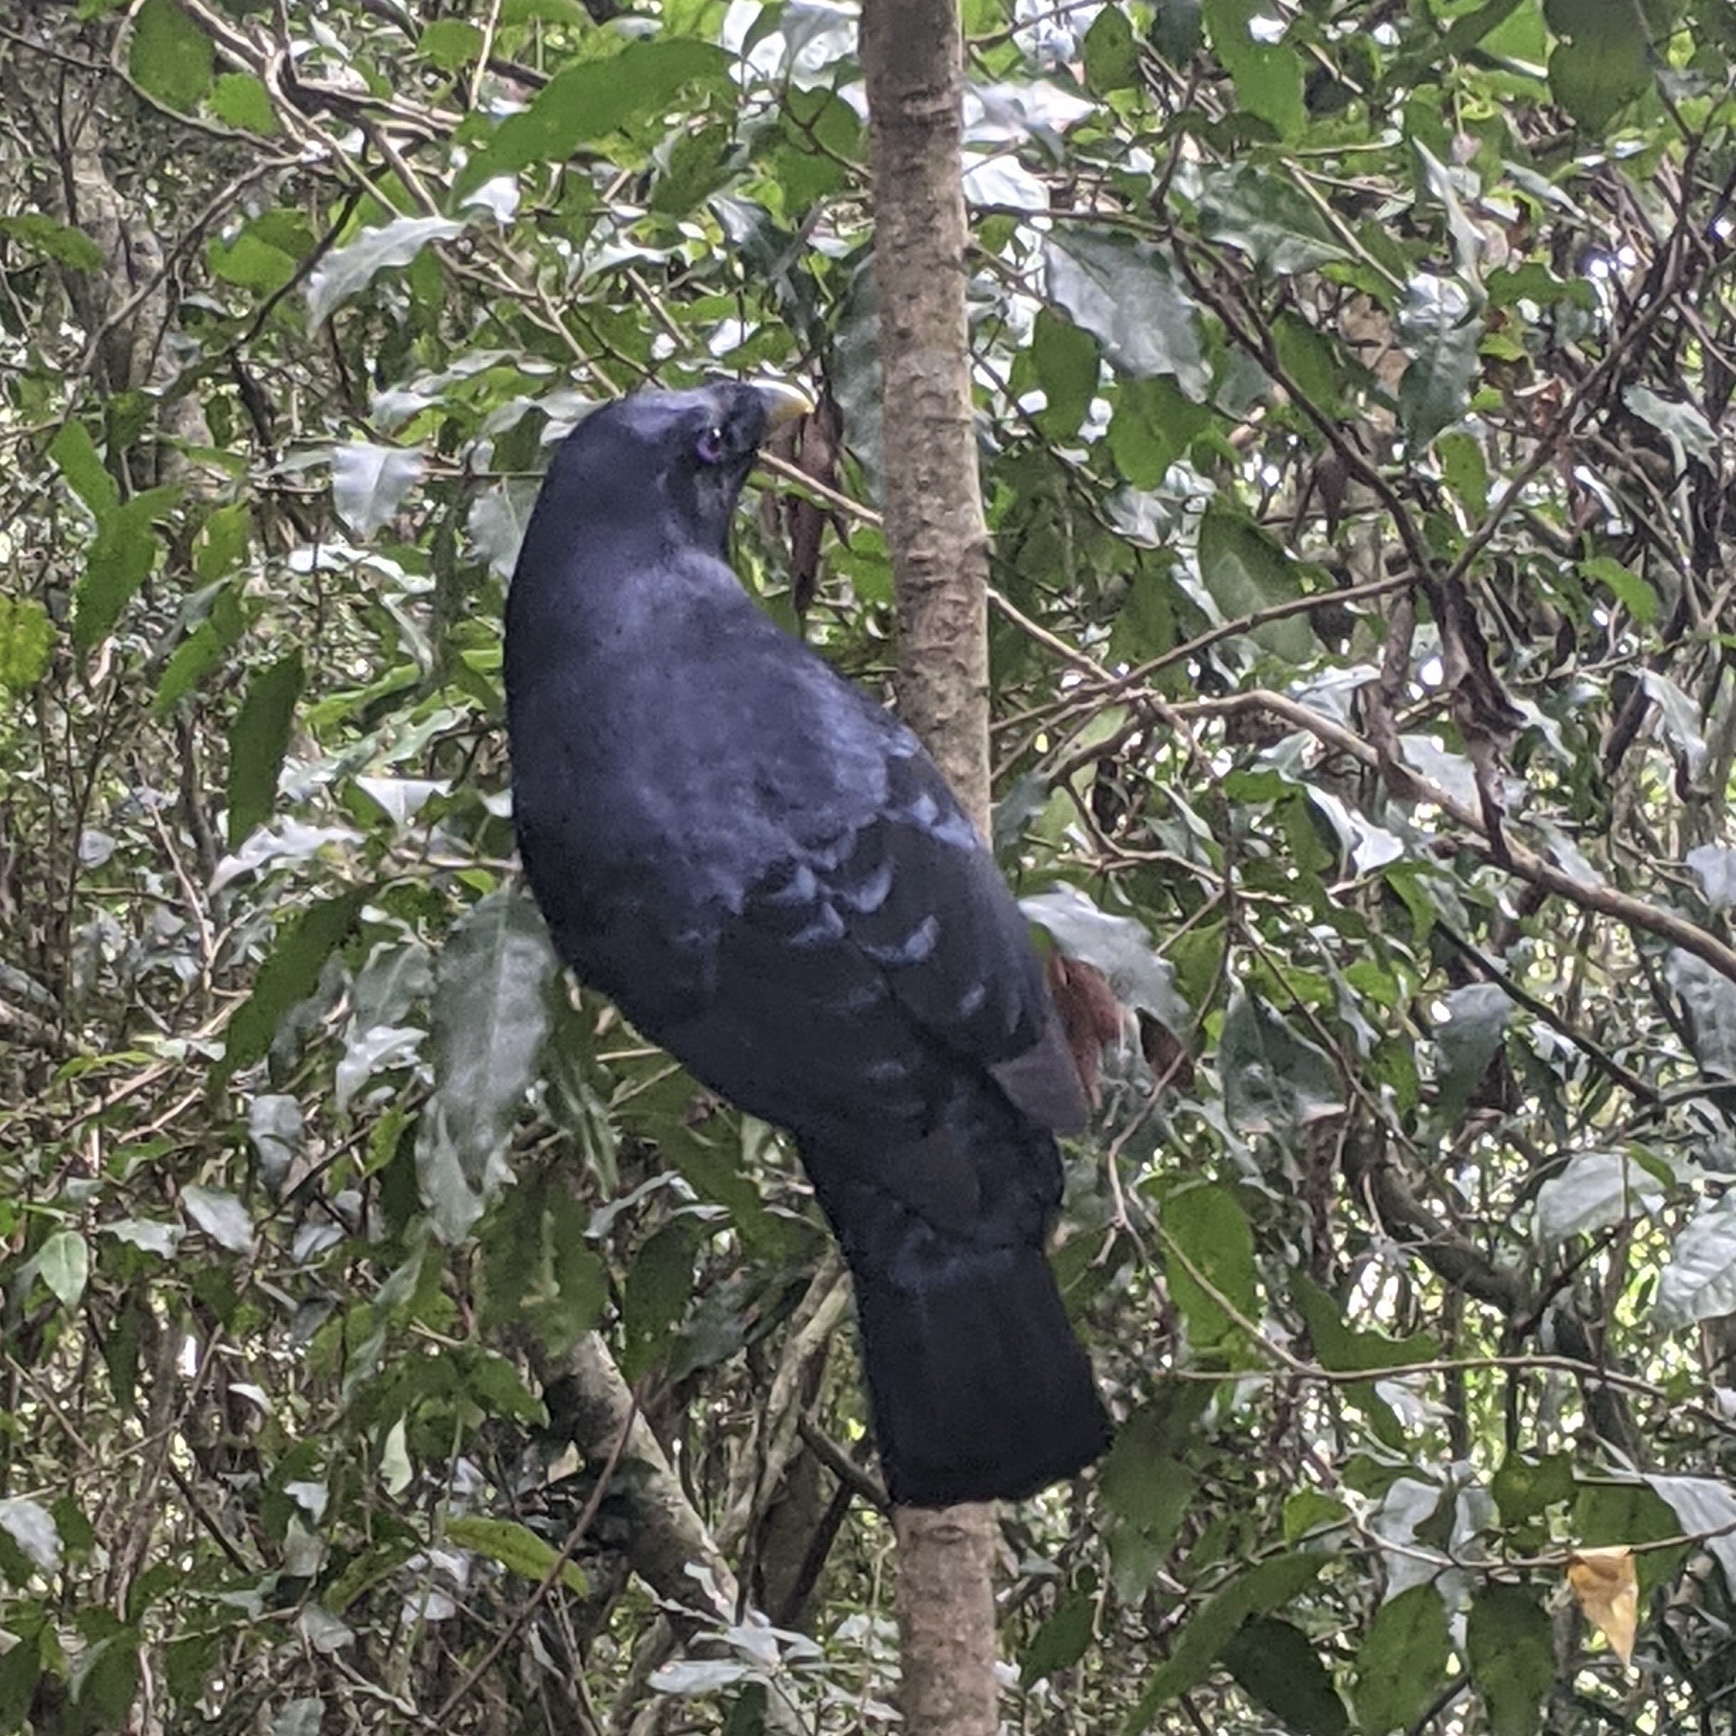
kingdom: Animalia
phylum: Chordata
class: Aves
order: Passeriformes
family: Ptilonorhynchidae
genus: Ptilonorhynchus
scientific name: Ptilonorhynchus violaceus
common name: Satin bowerbird
